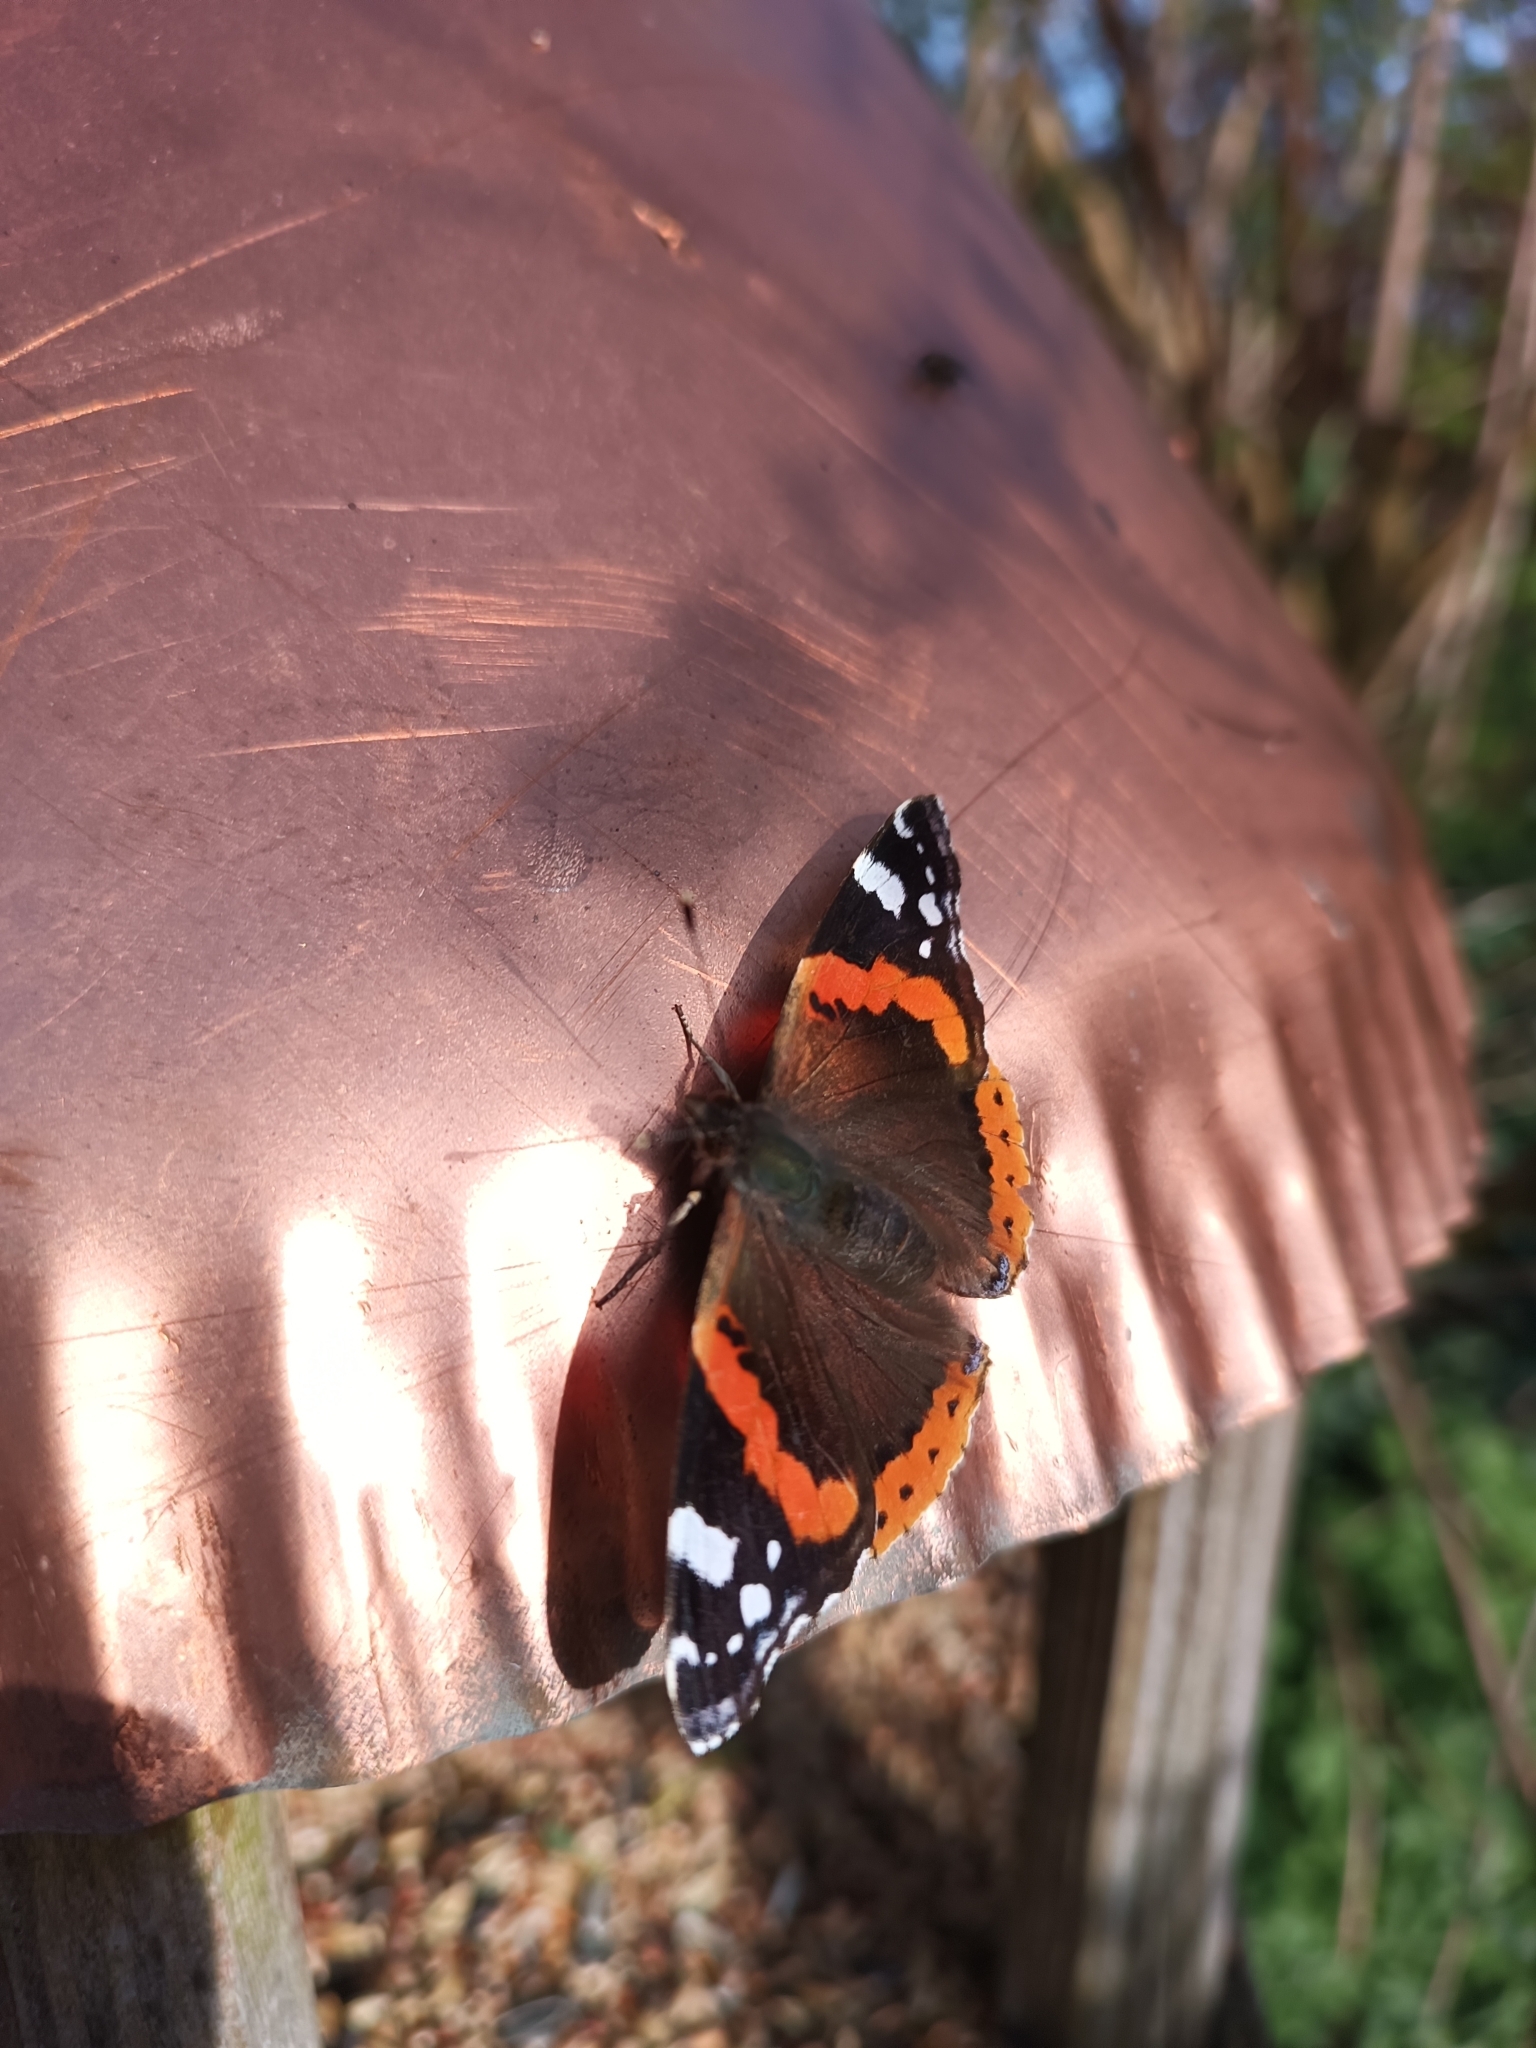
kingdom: Animalia
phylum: Arthropoda
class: Insecta
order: Lepidoptera
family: Nymphalidae
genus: Vanessa
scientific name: Vanessa atalanta
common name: Red admiral
